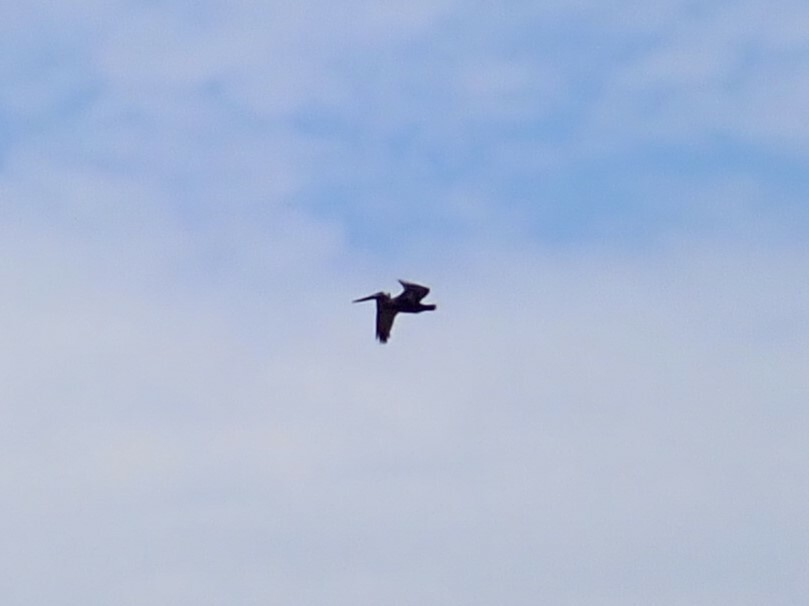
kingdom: Animalia
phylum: Chordata
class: Aves
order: Pelecaniformes
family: Pelecanidae
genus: Pelecanus
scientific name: Pelecanus occidentalis
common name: Brown pelican
